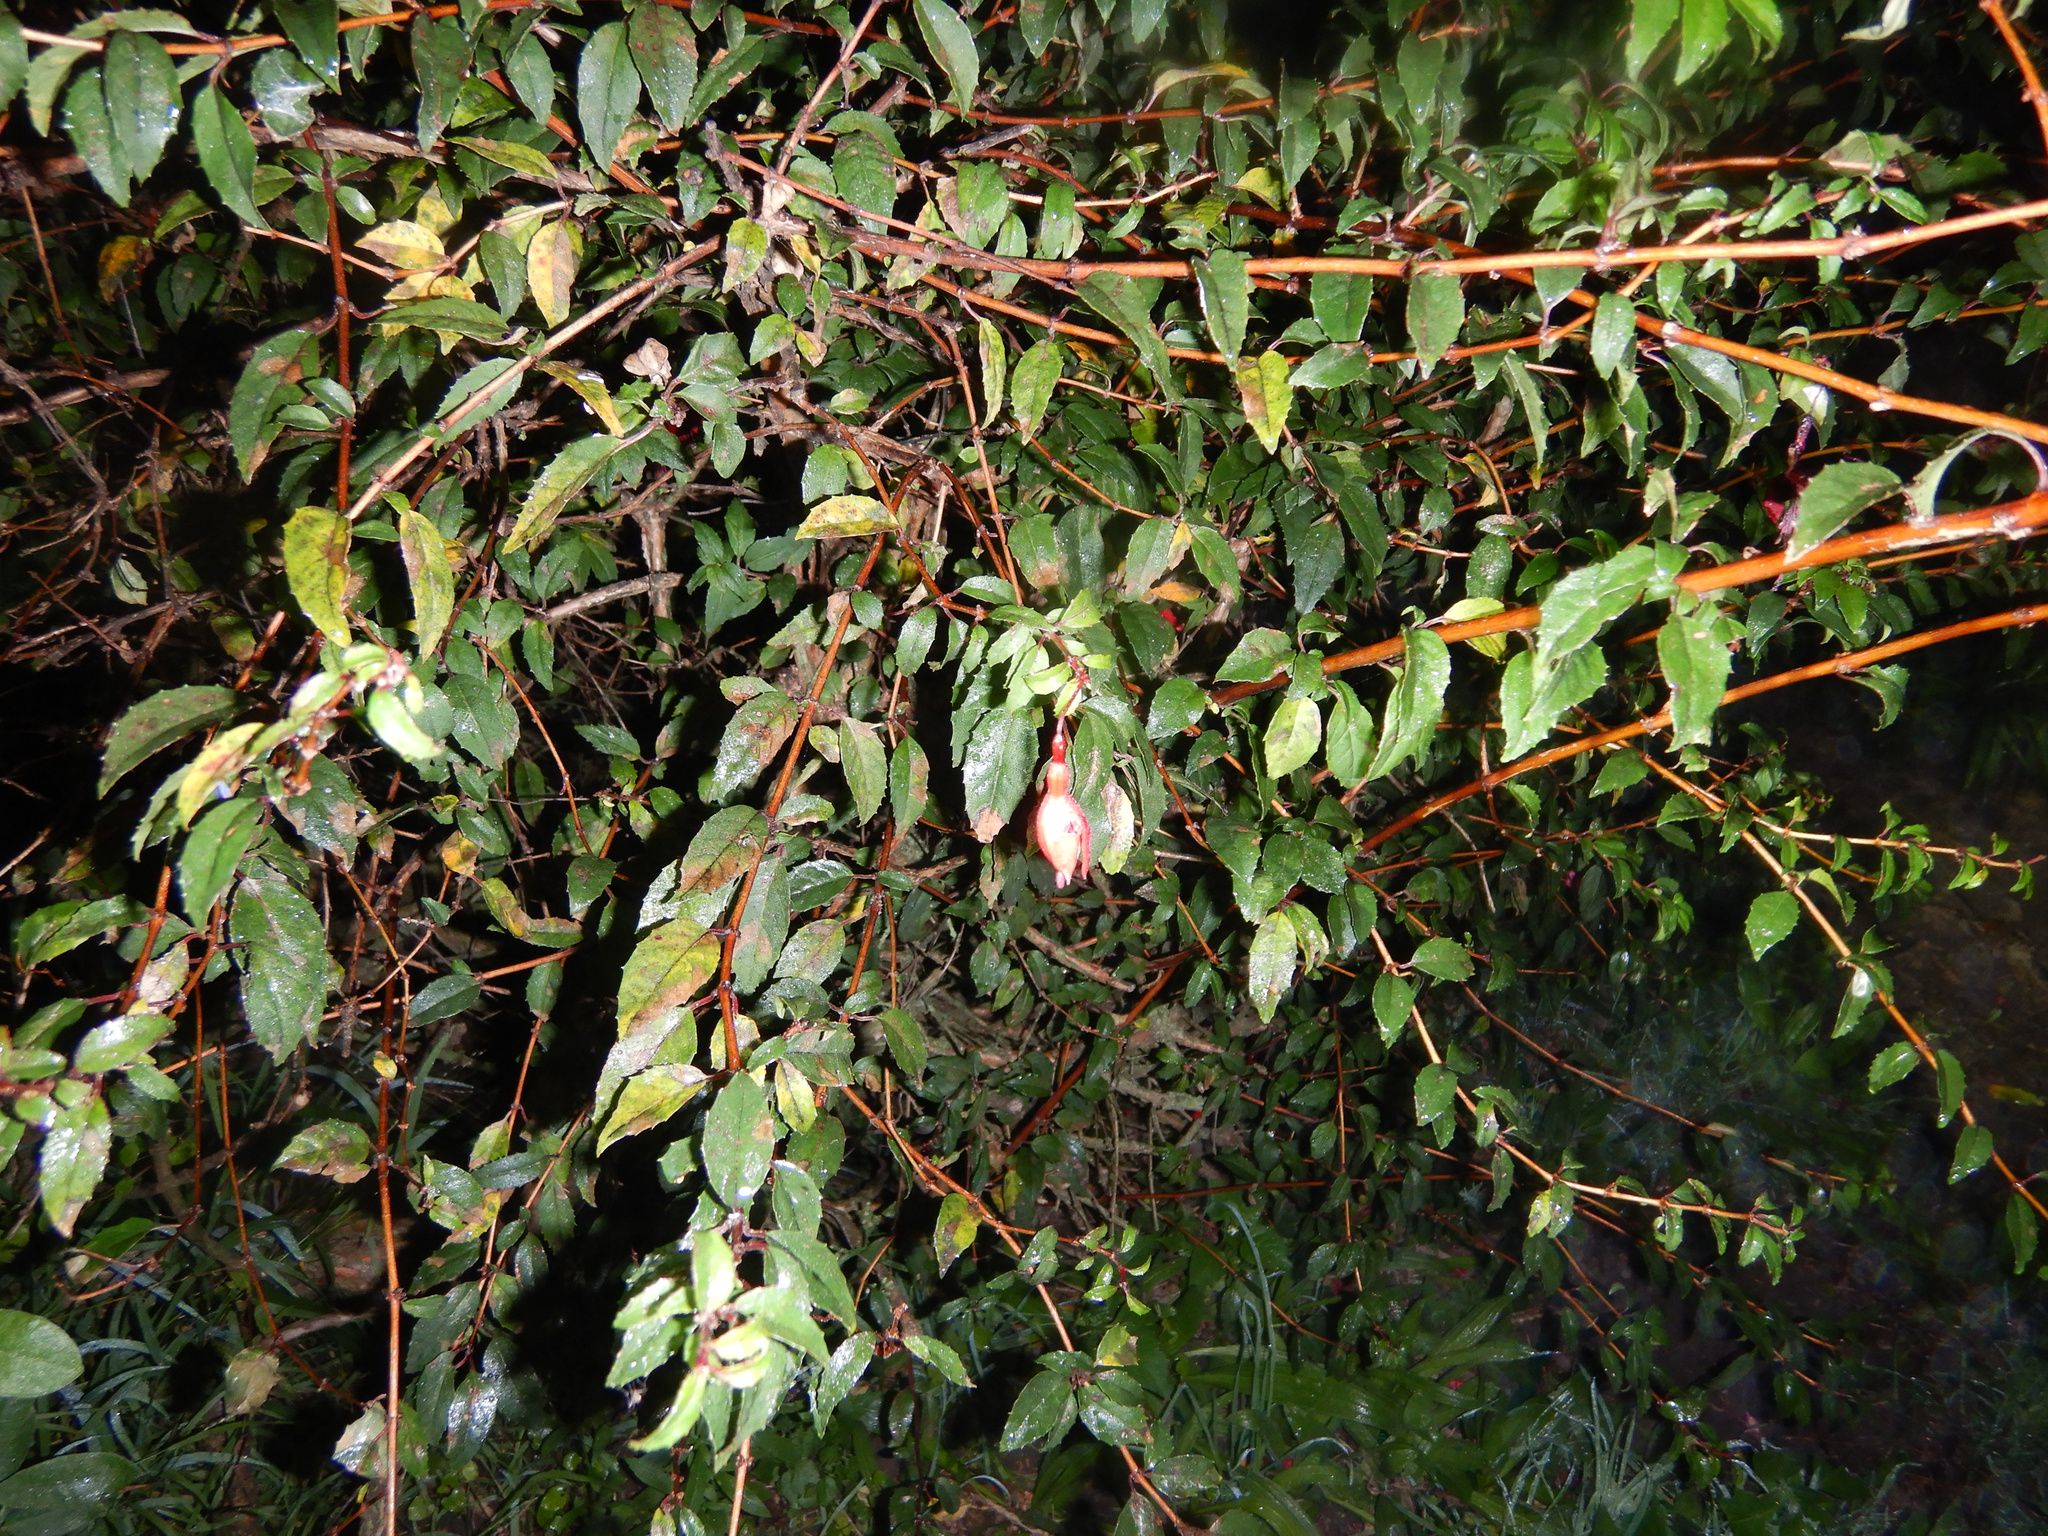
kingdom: Plantae
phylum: Tracheophyta
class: Magnoliopsida
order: Myrtales
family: Onagraceae
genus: Fuchsia
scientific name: Fuchsia magellanica
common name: Hardy fuchsia
